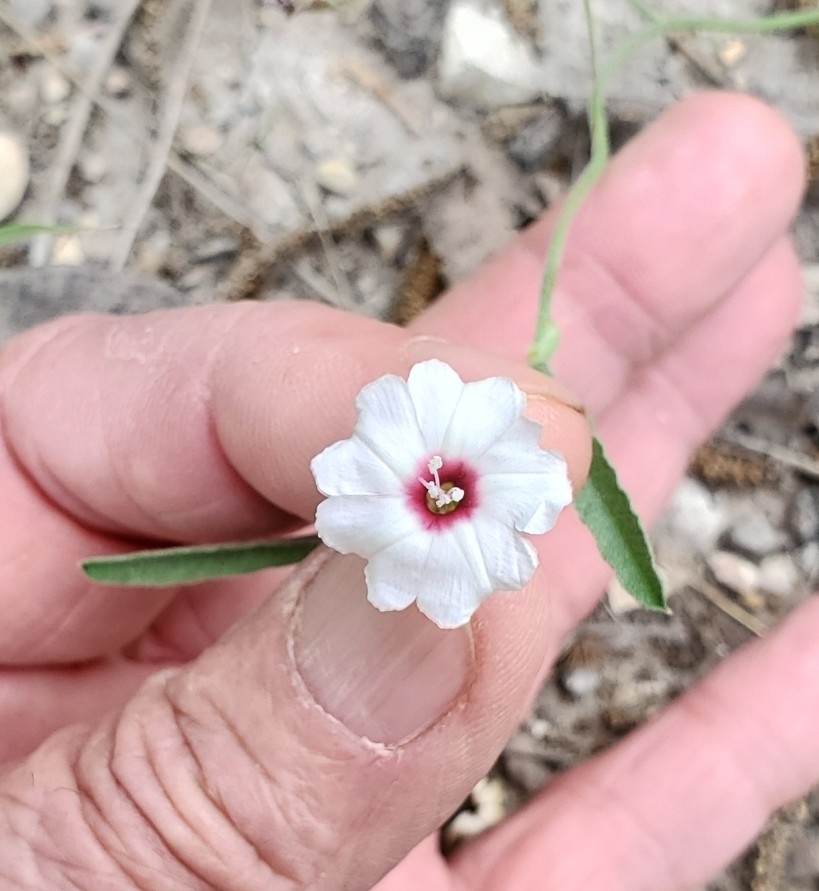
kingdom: Plantae
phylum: Tracheophyta
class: Magnoliopsida
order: Solanales
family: Convolvulaceae
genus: Convolvulus
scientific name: Convolvulus equitans
